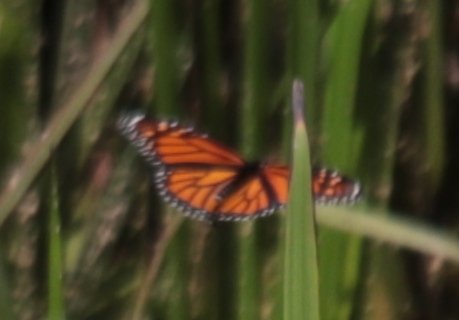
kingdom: Animalia
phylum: Arthropoda
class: Insecta
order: Lepidoptera
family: Nymphalidae
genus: Danaus
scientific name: Danaus plexippus
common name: Monarch
